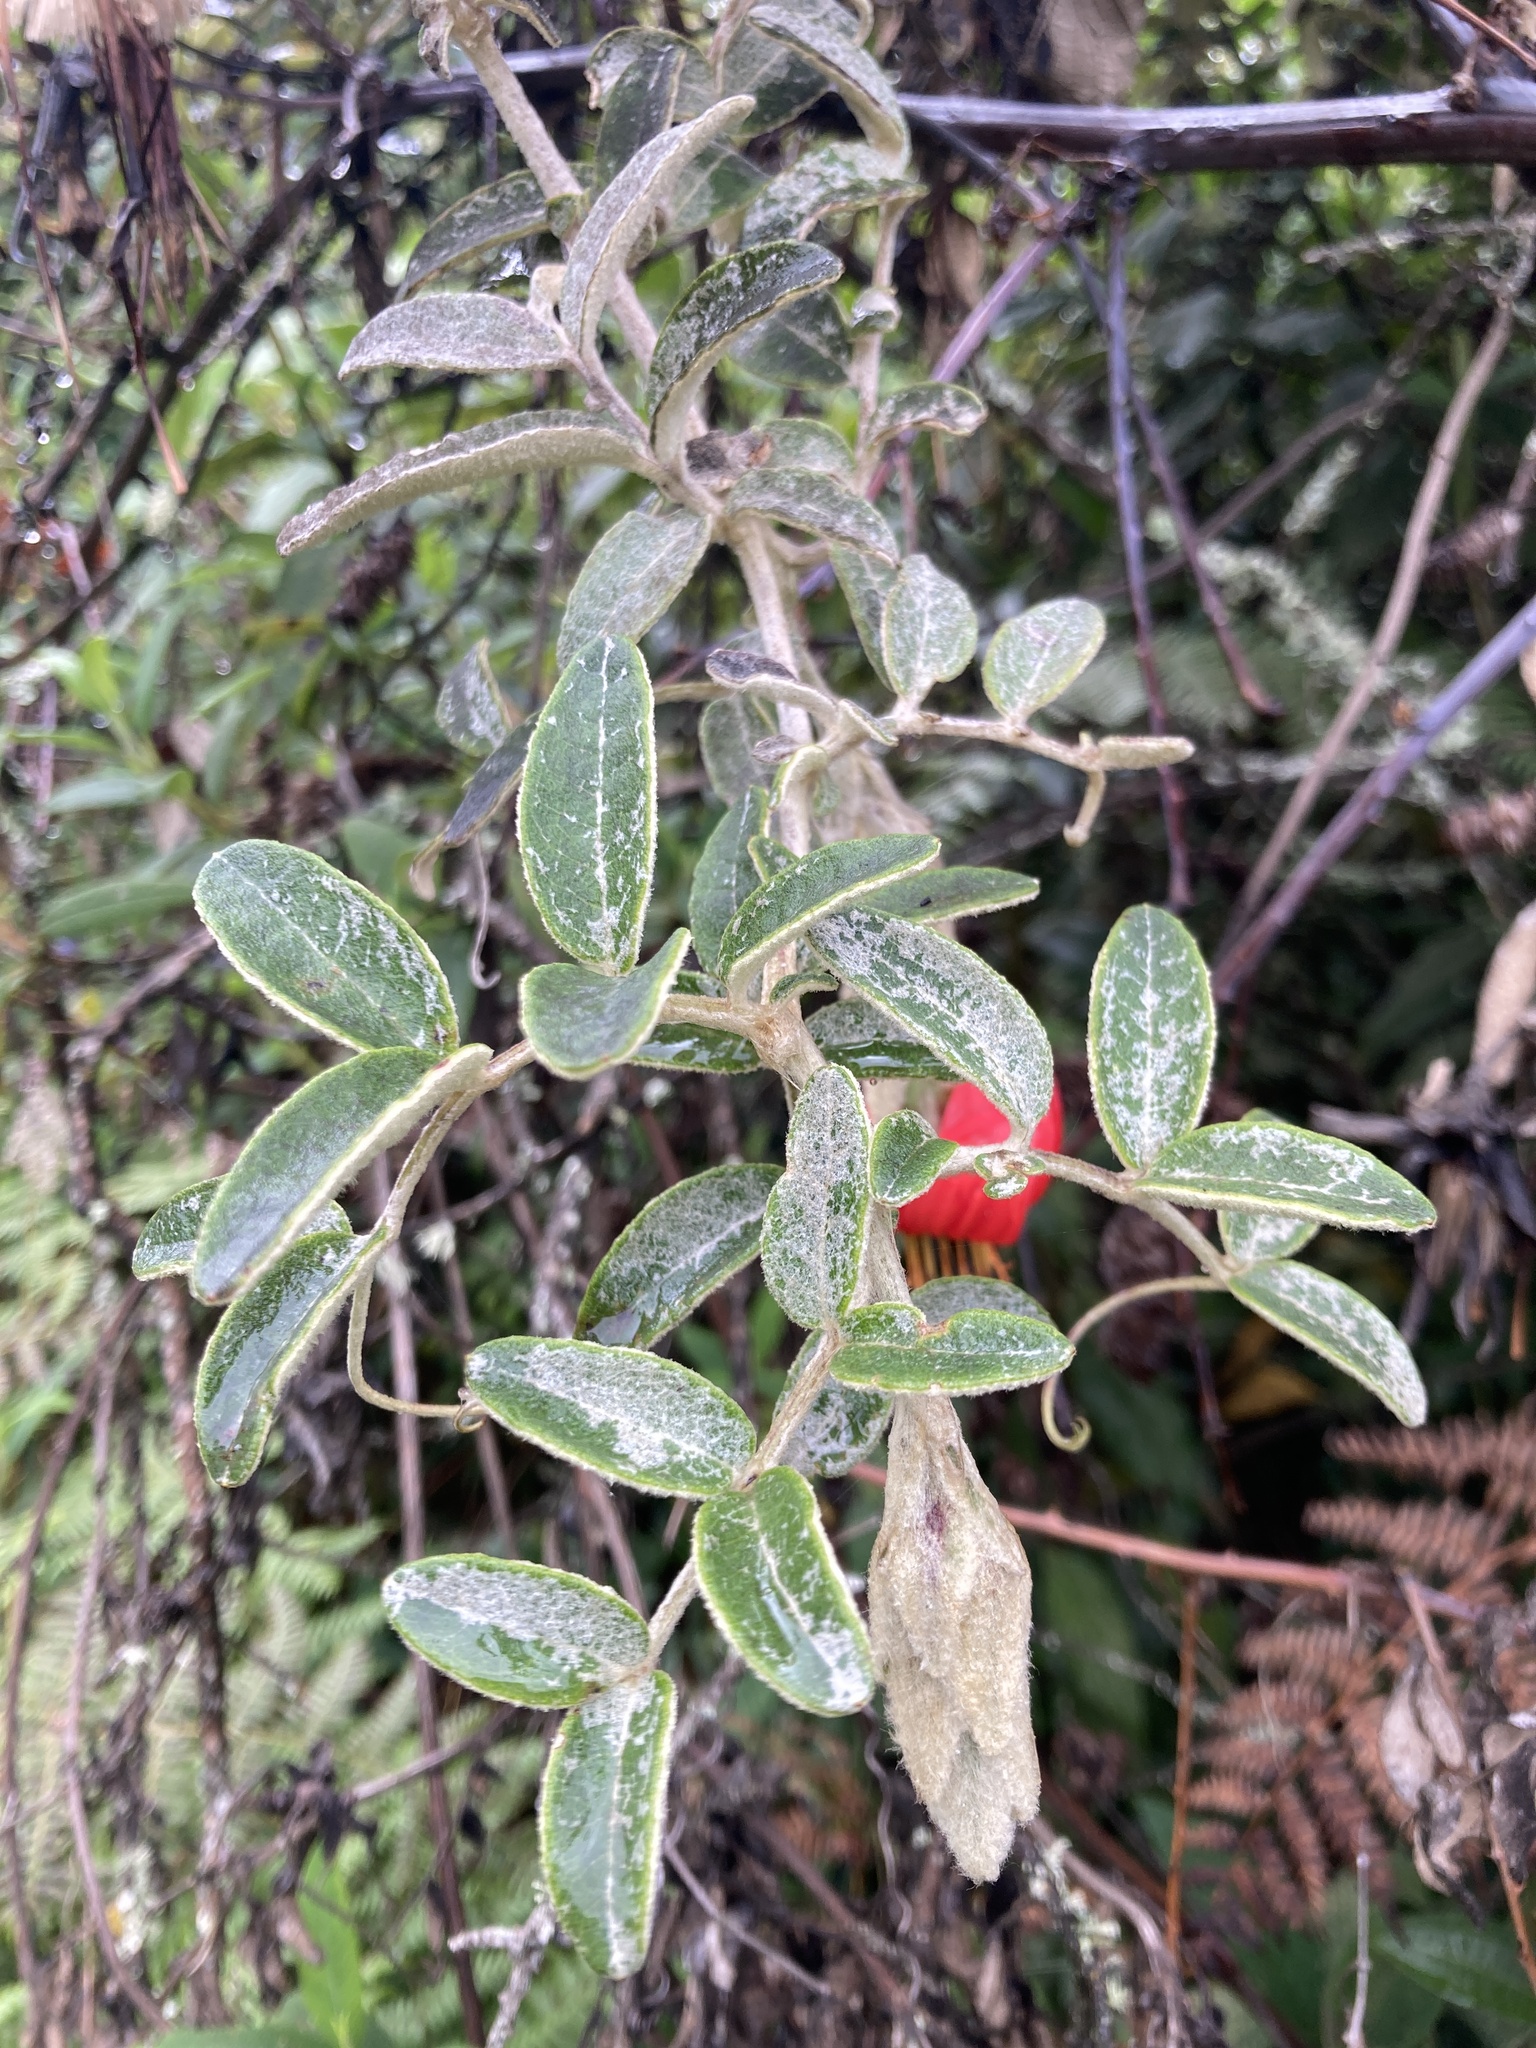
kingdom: Plantae
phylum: Tracheophyta
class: Magnoliopsida
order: Asterales
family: Asteraceae
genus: Mutisia
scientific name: Mutisia clematis
